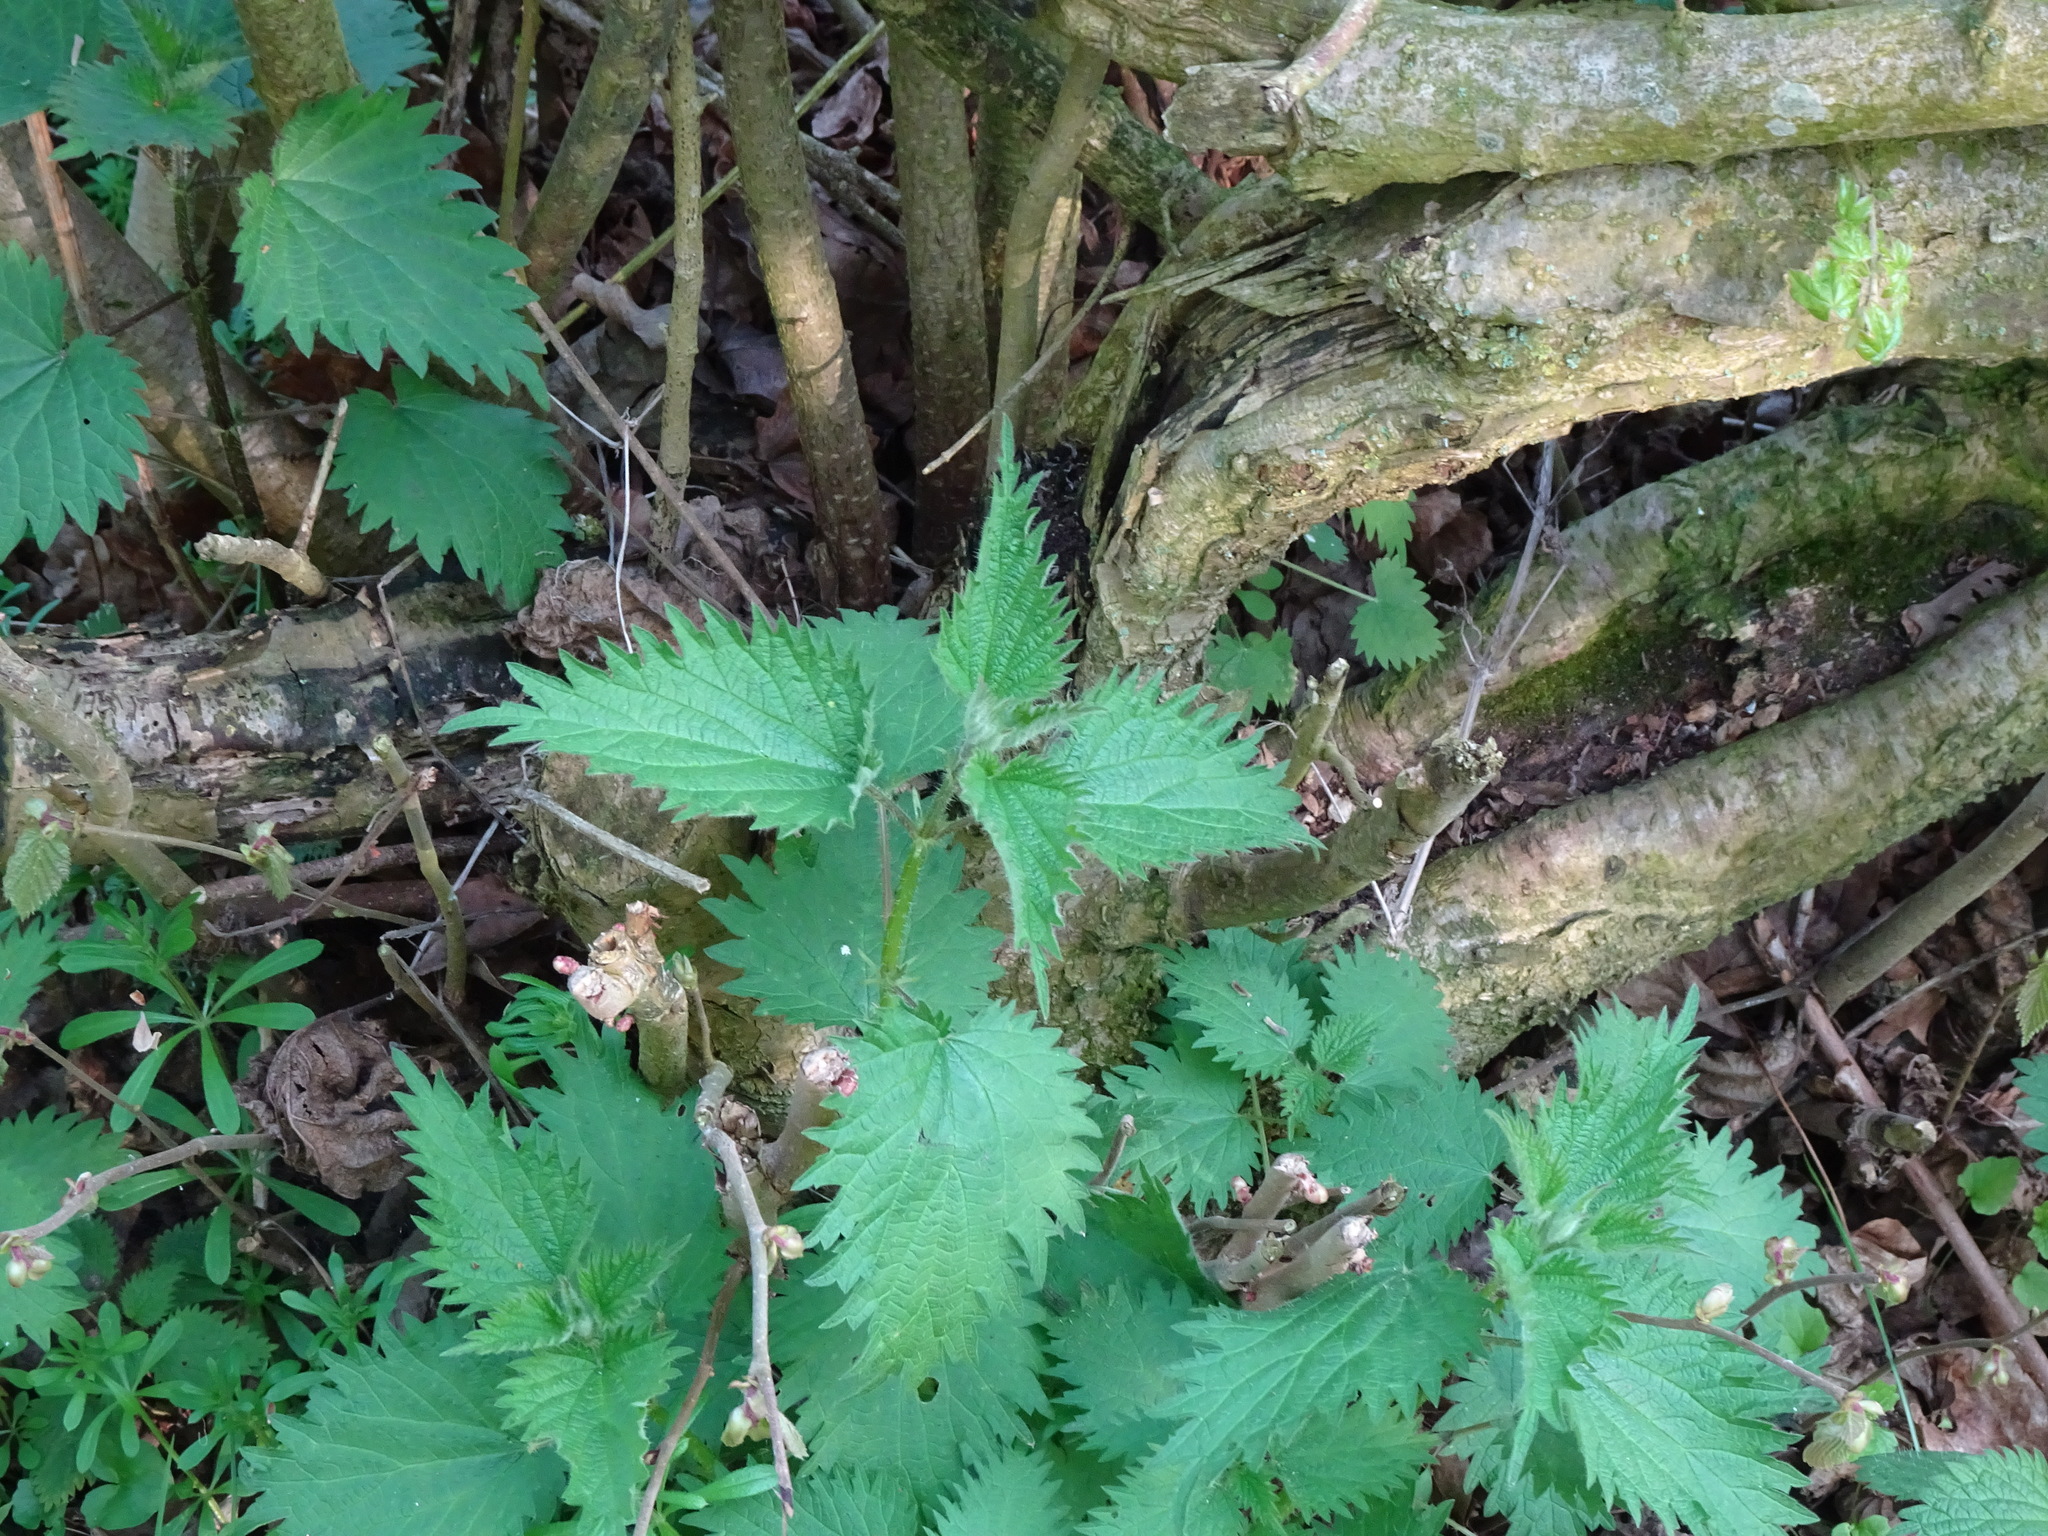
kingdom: Plantae
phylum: Tracheophyta
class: Magnoliopsida
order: Rosales
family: Urticaceae
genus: Urtica
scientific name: Urtica dioica
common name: Common nettle
